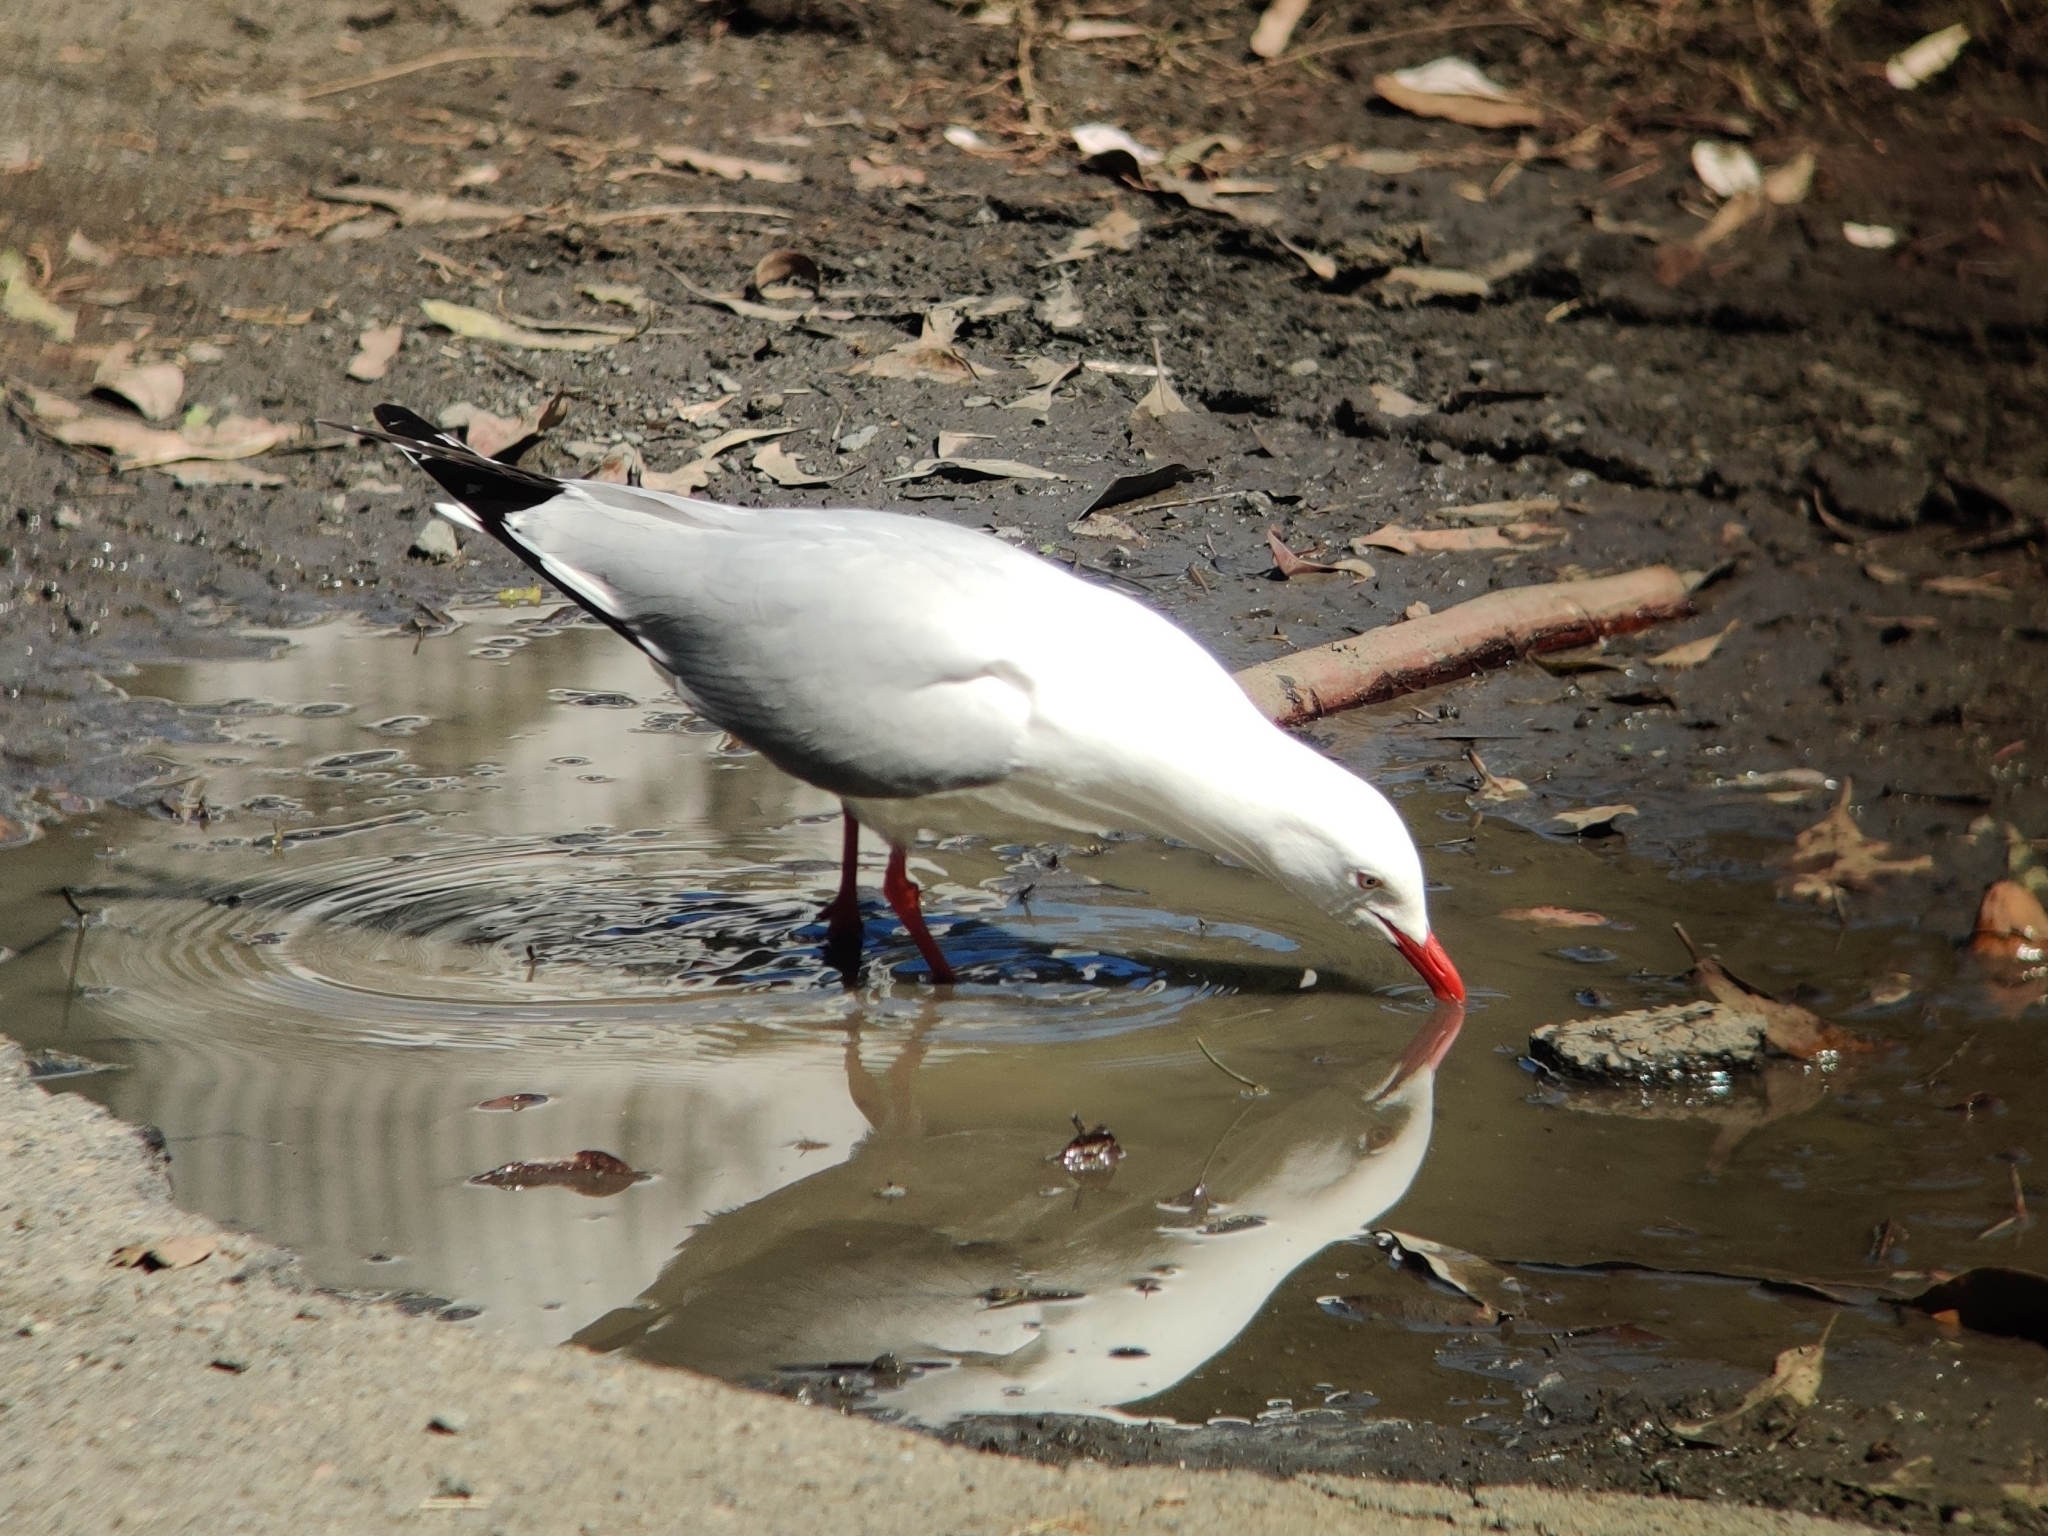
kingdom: Animalia
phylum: Chordata
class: Aves
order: Charadriiformes
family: Laridae
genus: Chroicocephalus
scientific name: Chroicocephalus novaehollandiae
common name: Silver gull
